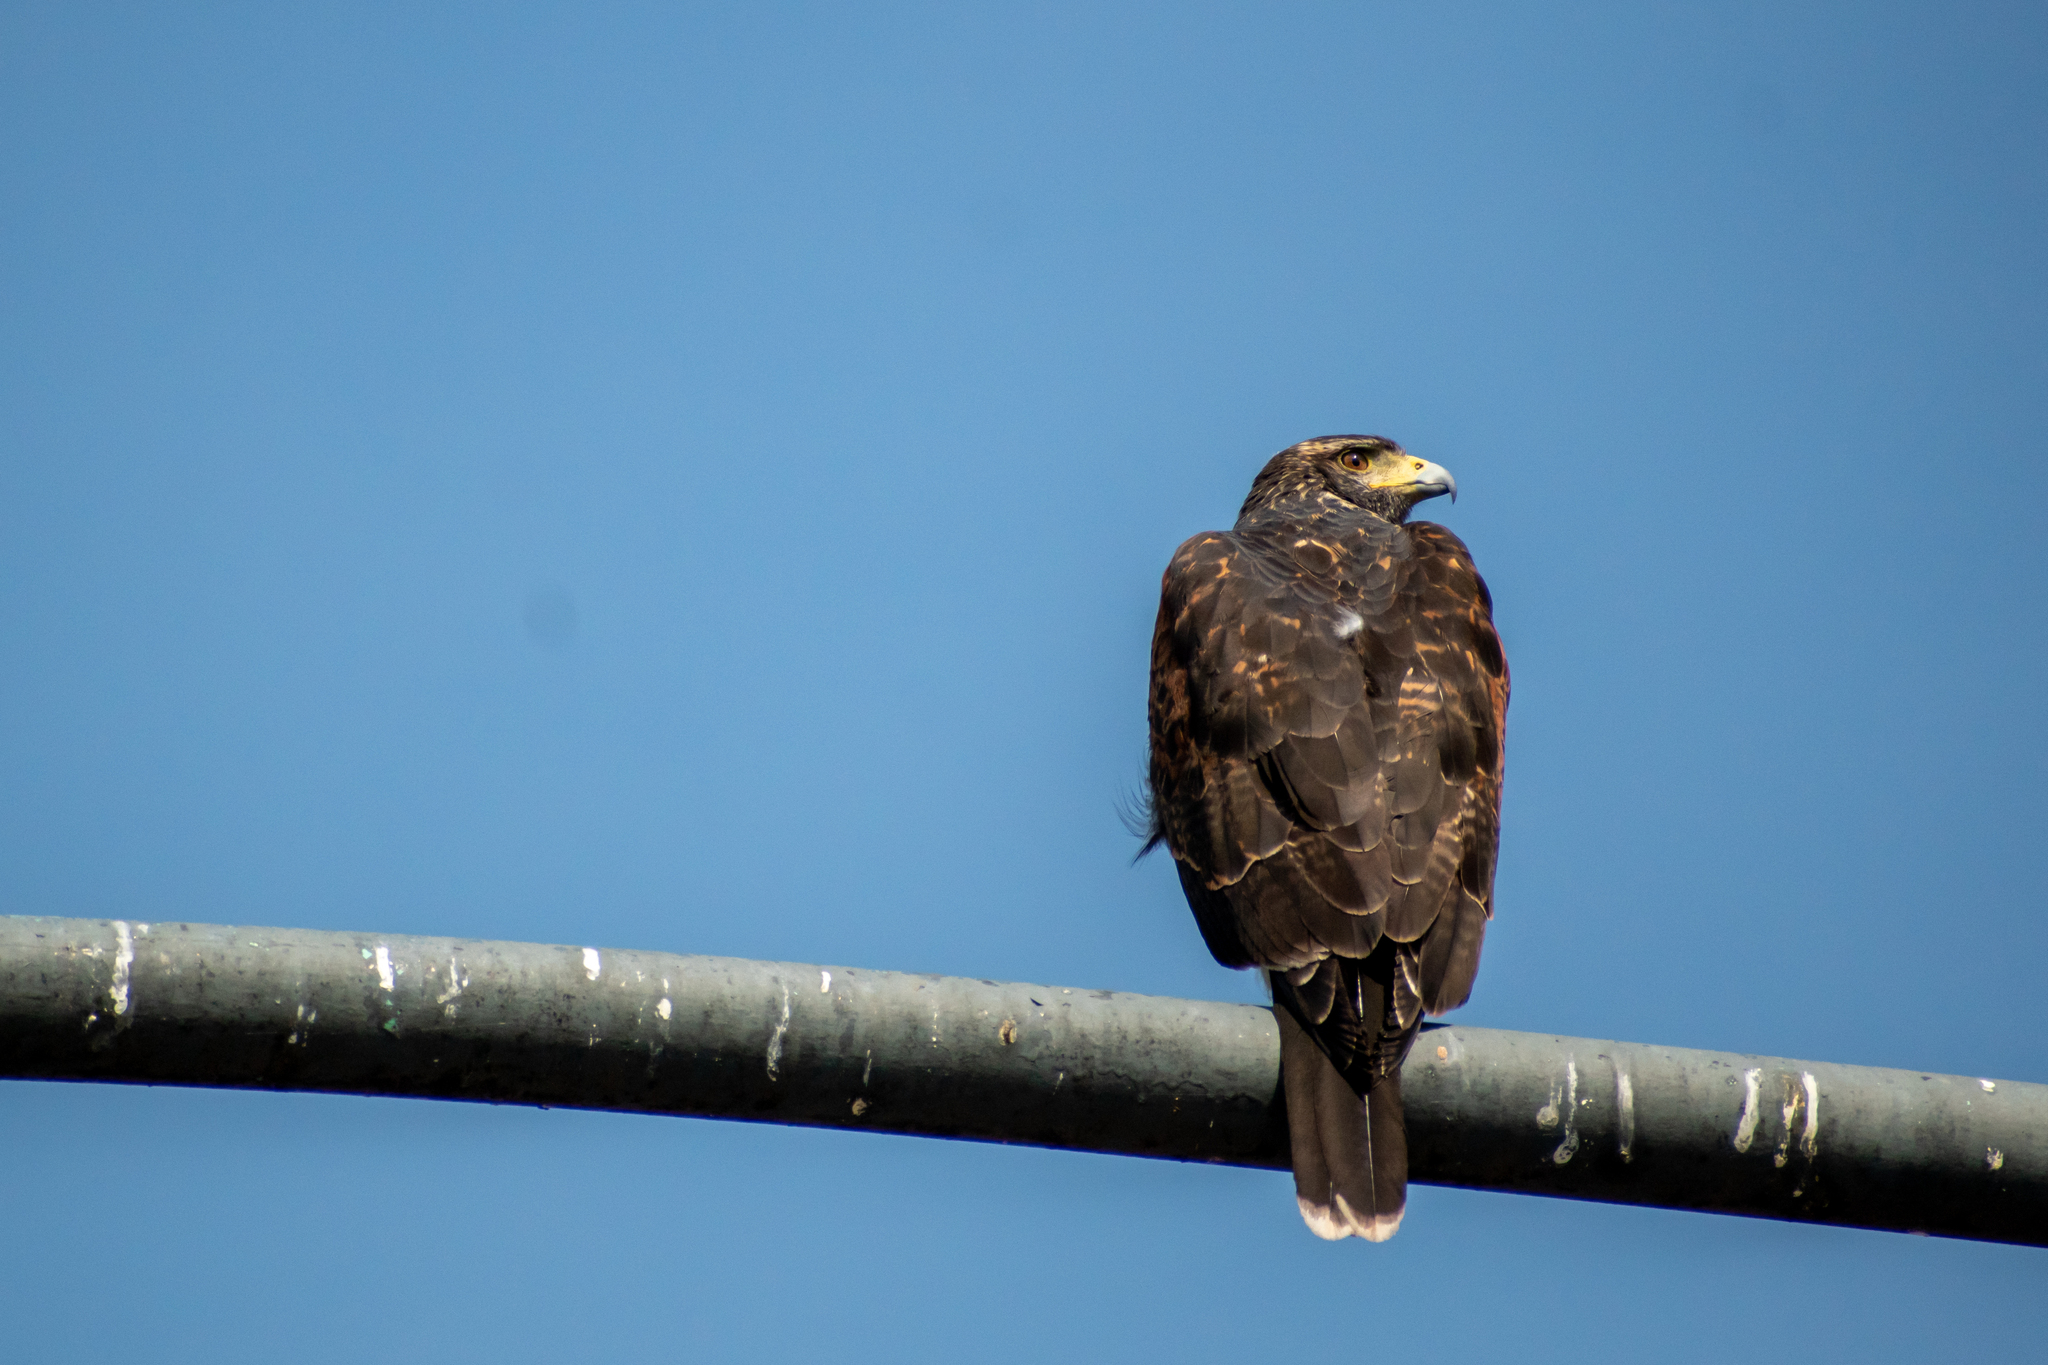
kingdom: Animalia
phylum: Chordata
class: Aves
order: Accipitriformes
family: Accipitridae
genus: Parabuteo
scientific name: Parabuteo unicinctus
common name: Harris's hawk
